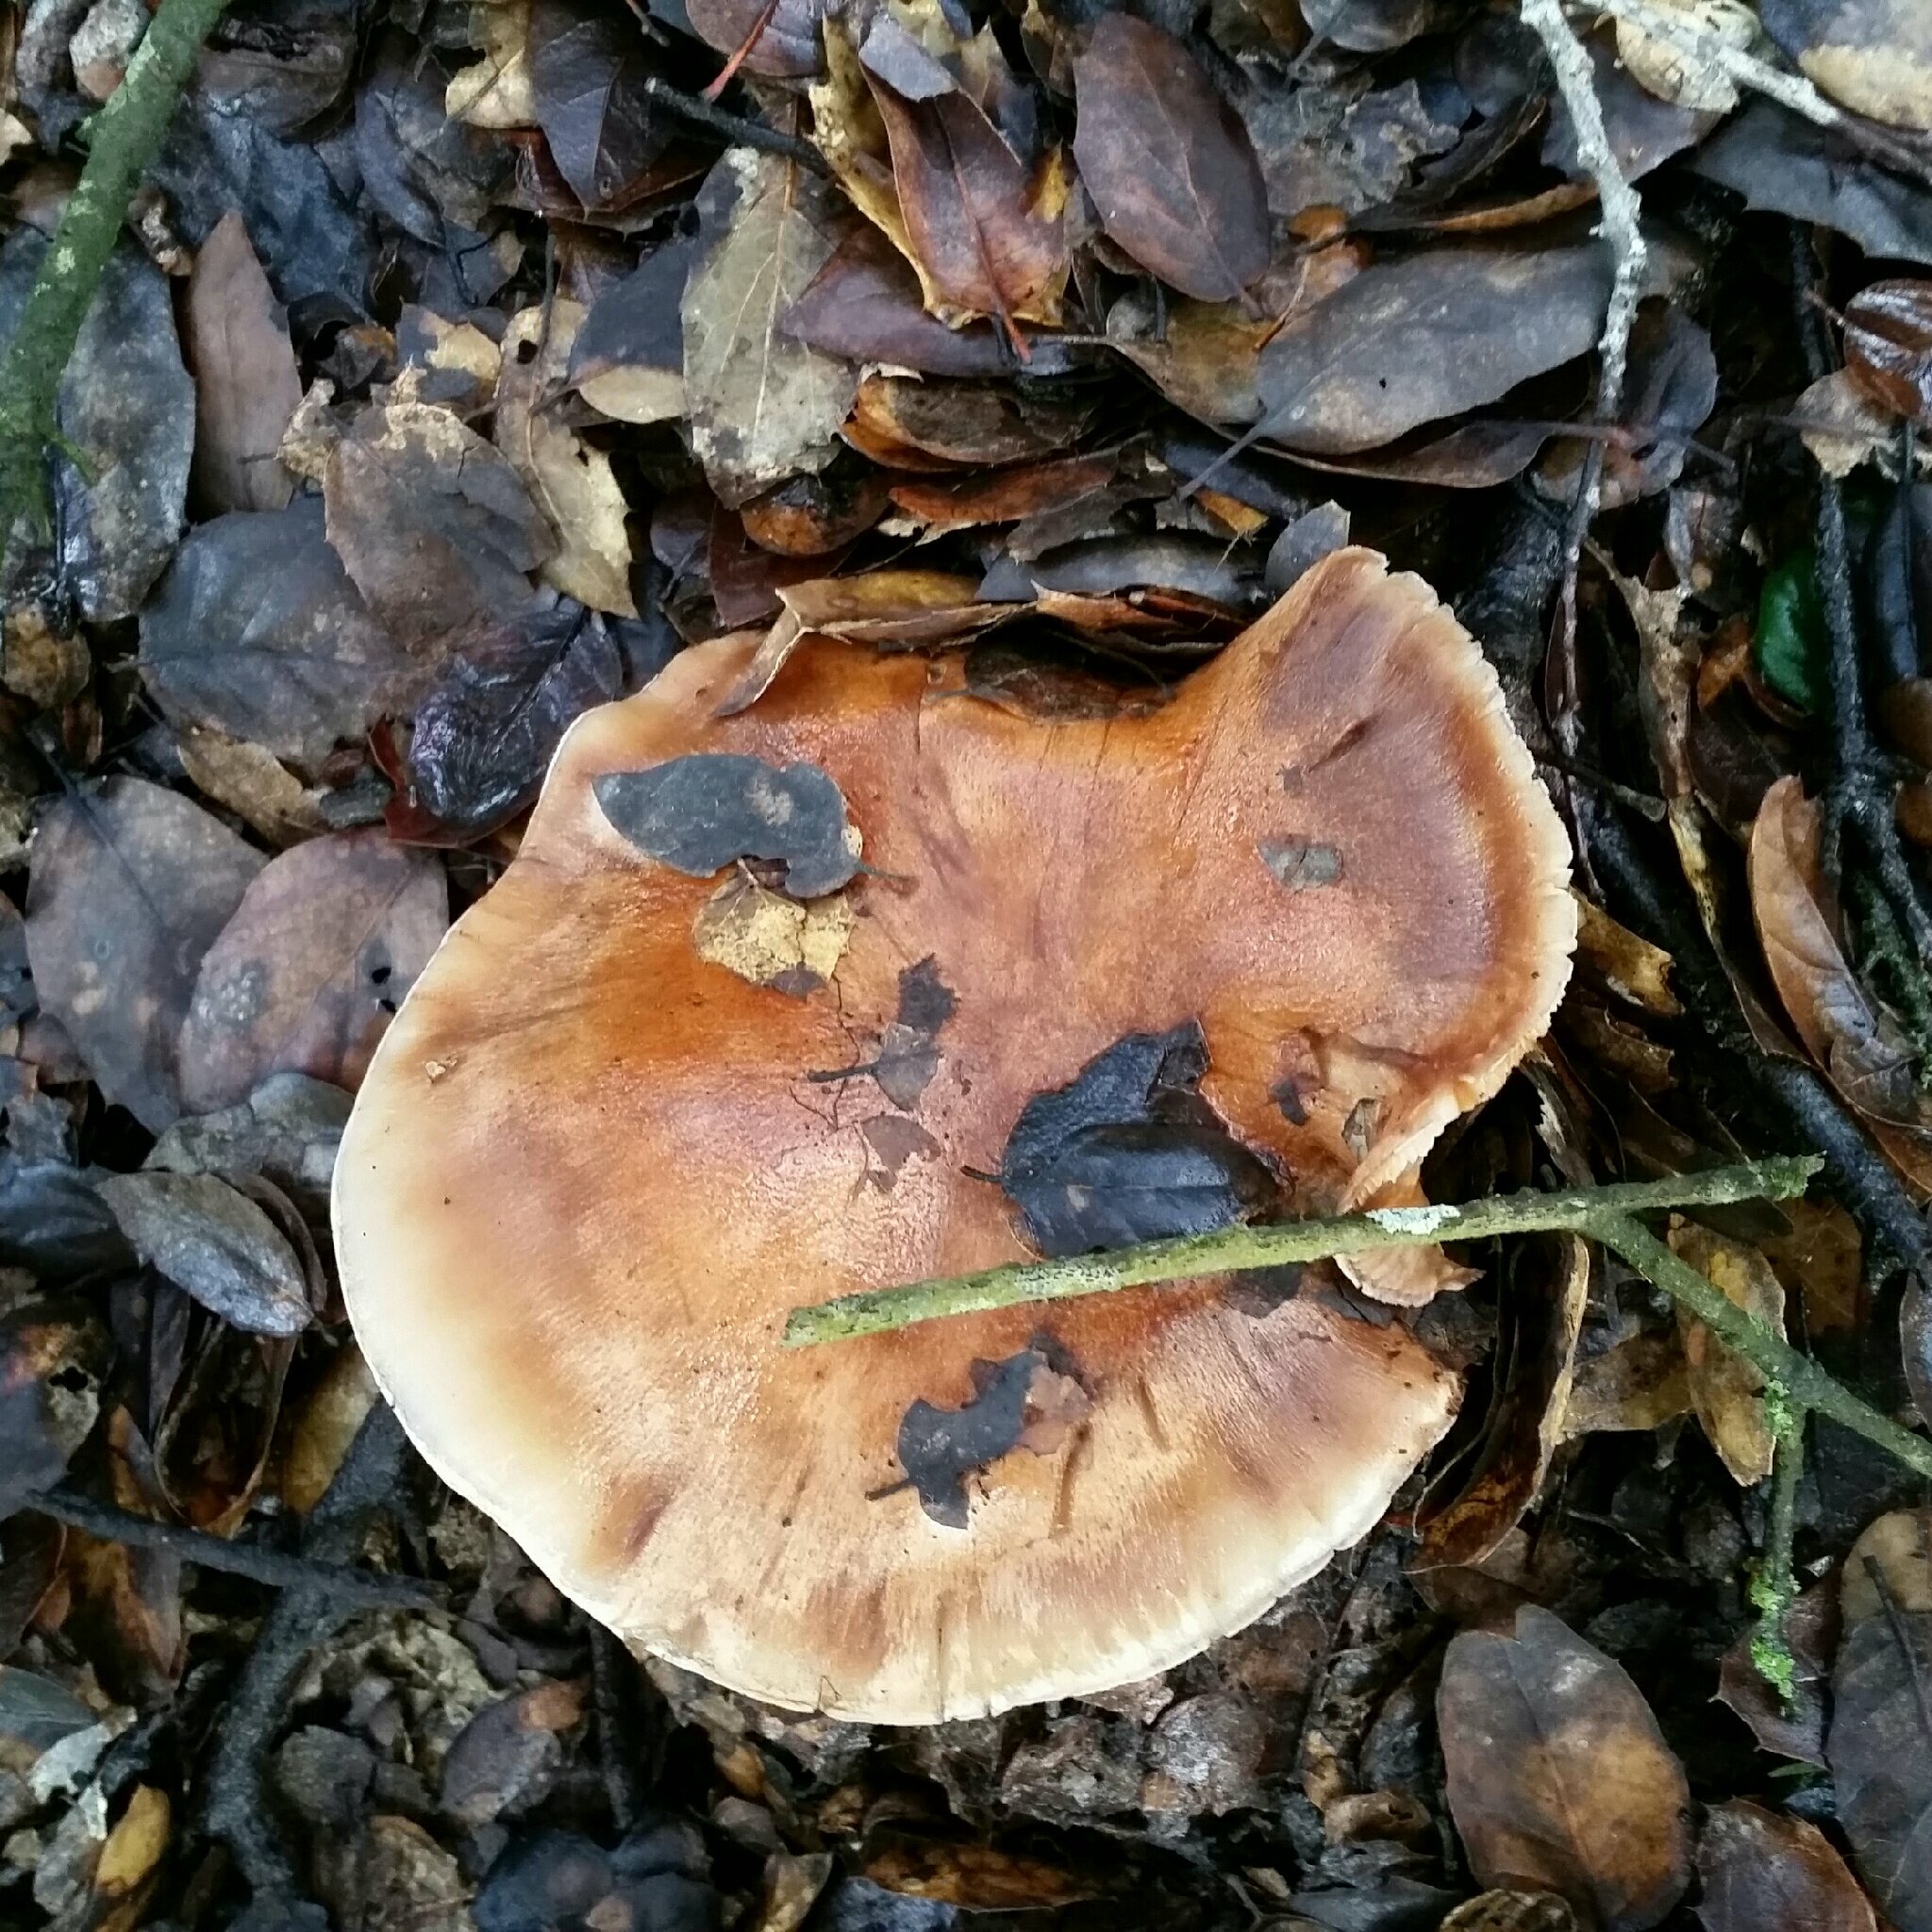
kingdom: Fungi
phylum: Basidiomycota
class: Agaricomycetes
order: Agaricales
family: Tricholomataceae
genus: Melanoleuca
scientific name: Melanoleuca dryophila
